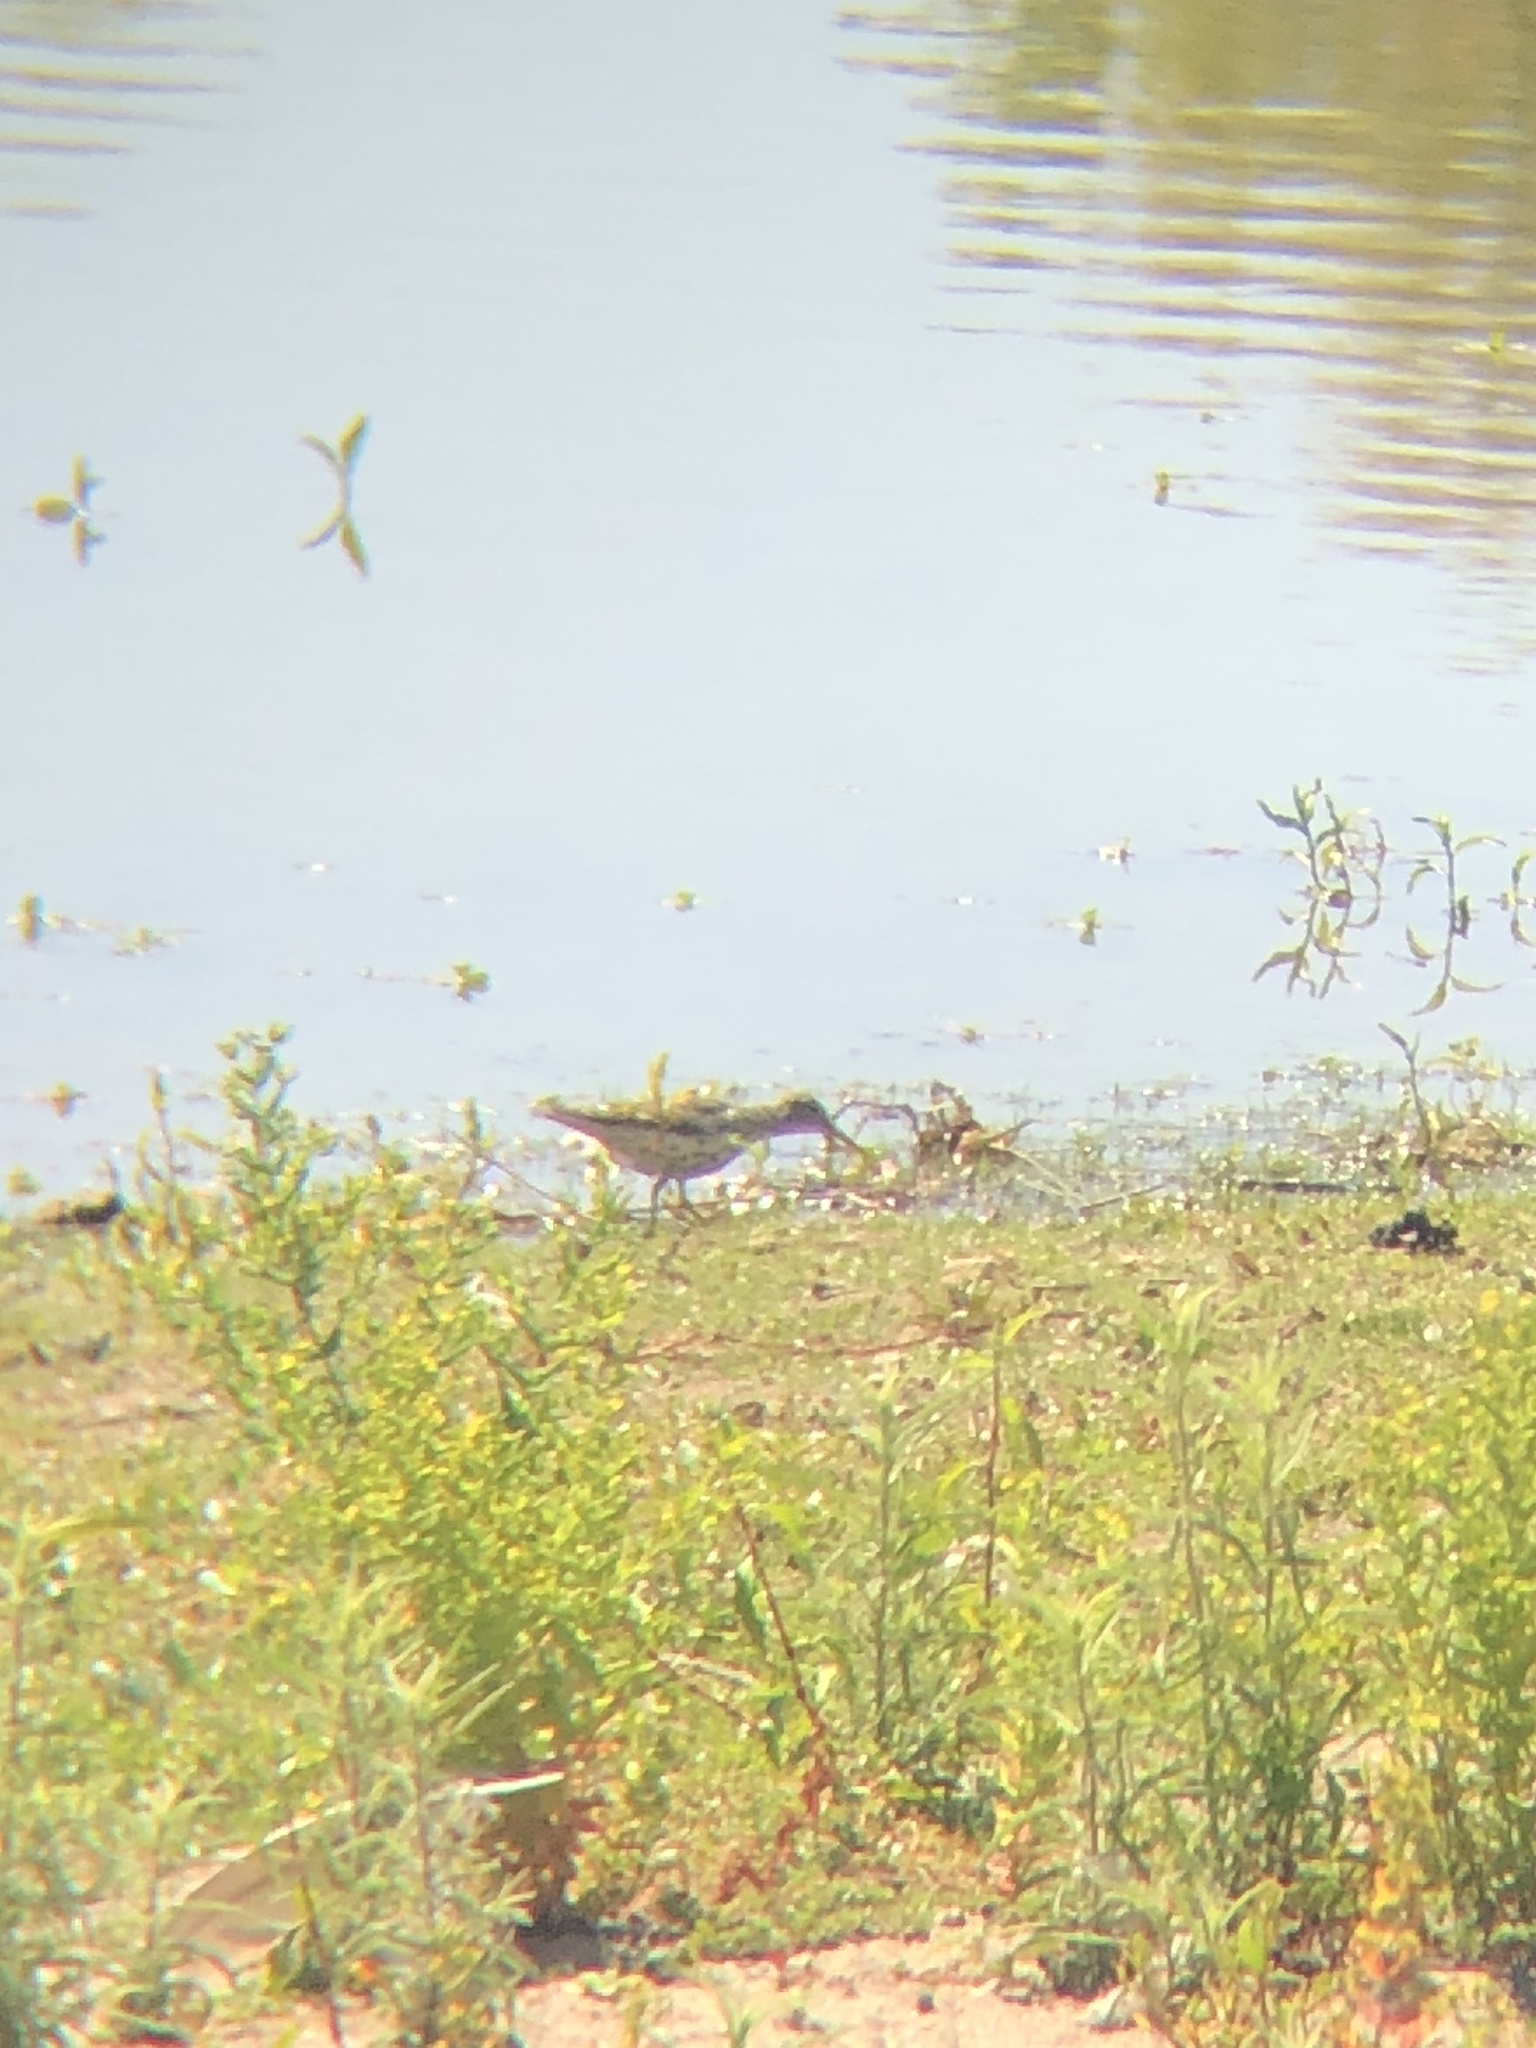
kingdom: Animalia
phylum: Chordata
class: Aves
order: Charadriiformes
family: Scolopacidae
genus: Actitis
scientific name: Actitis macularius
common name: Spotted sandpiper
